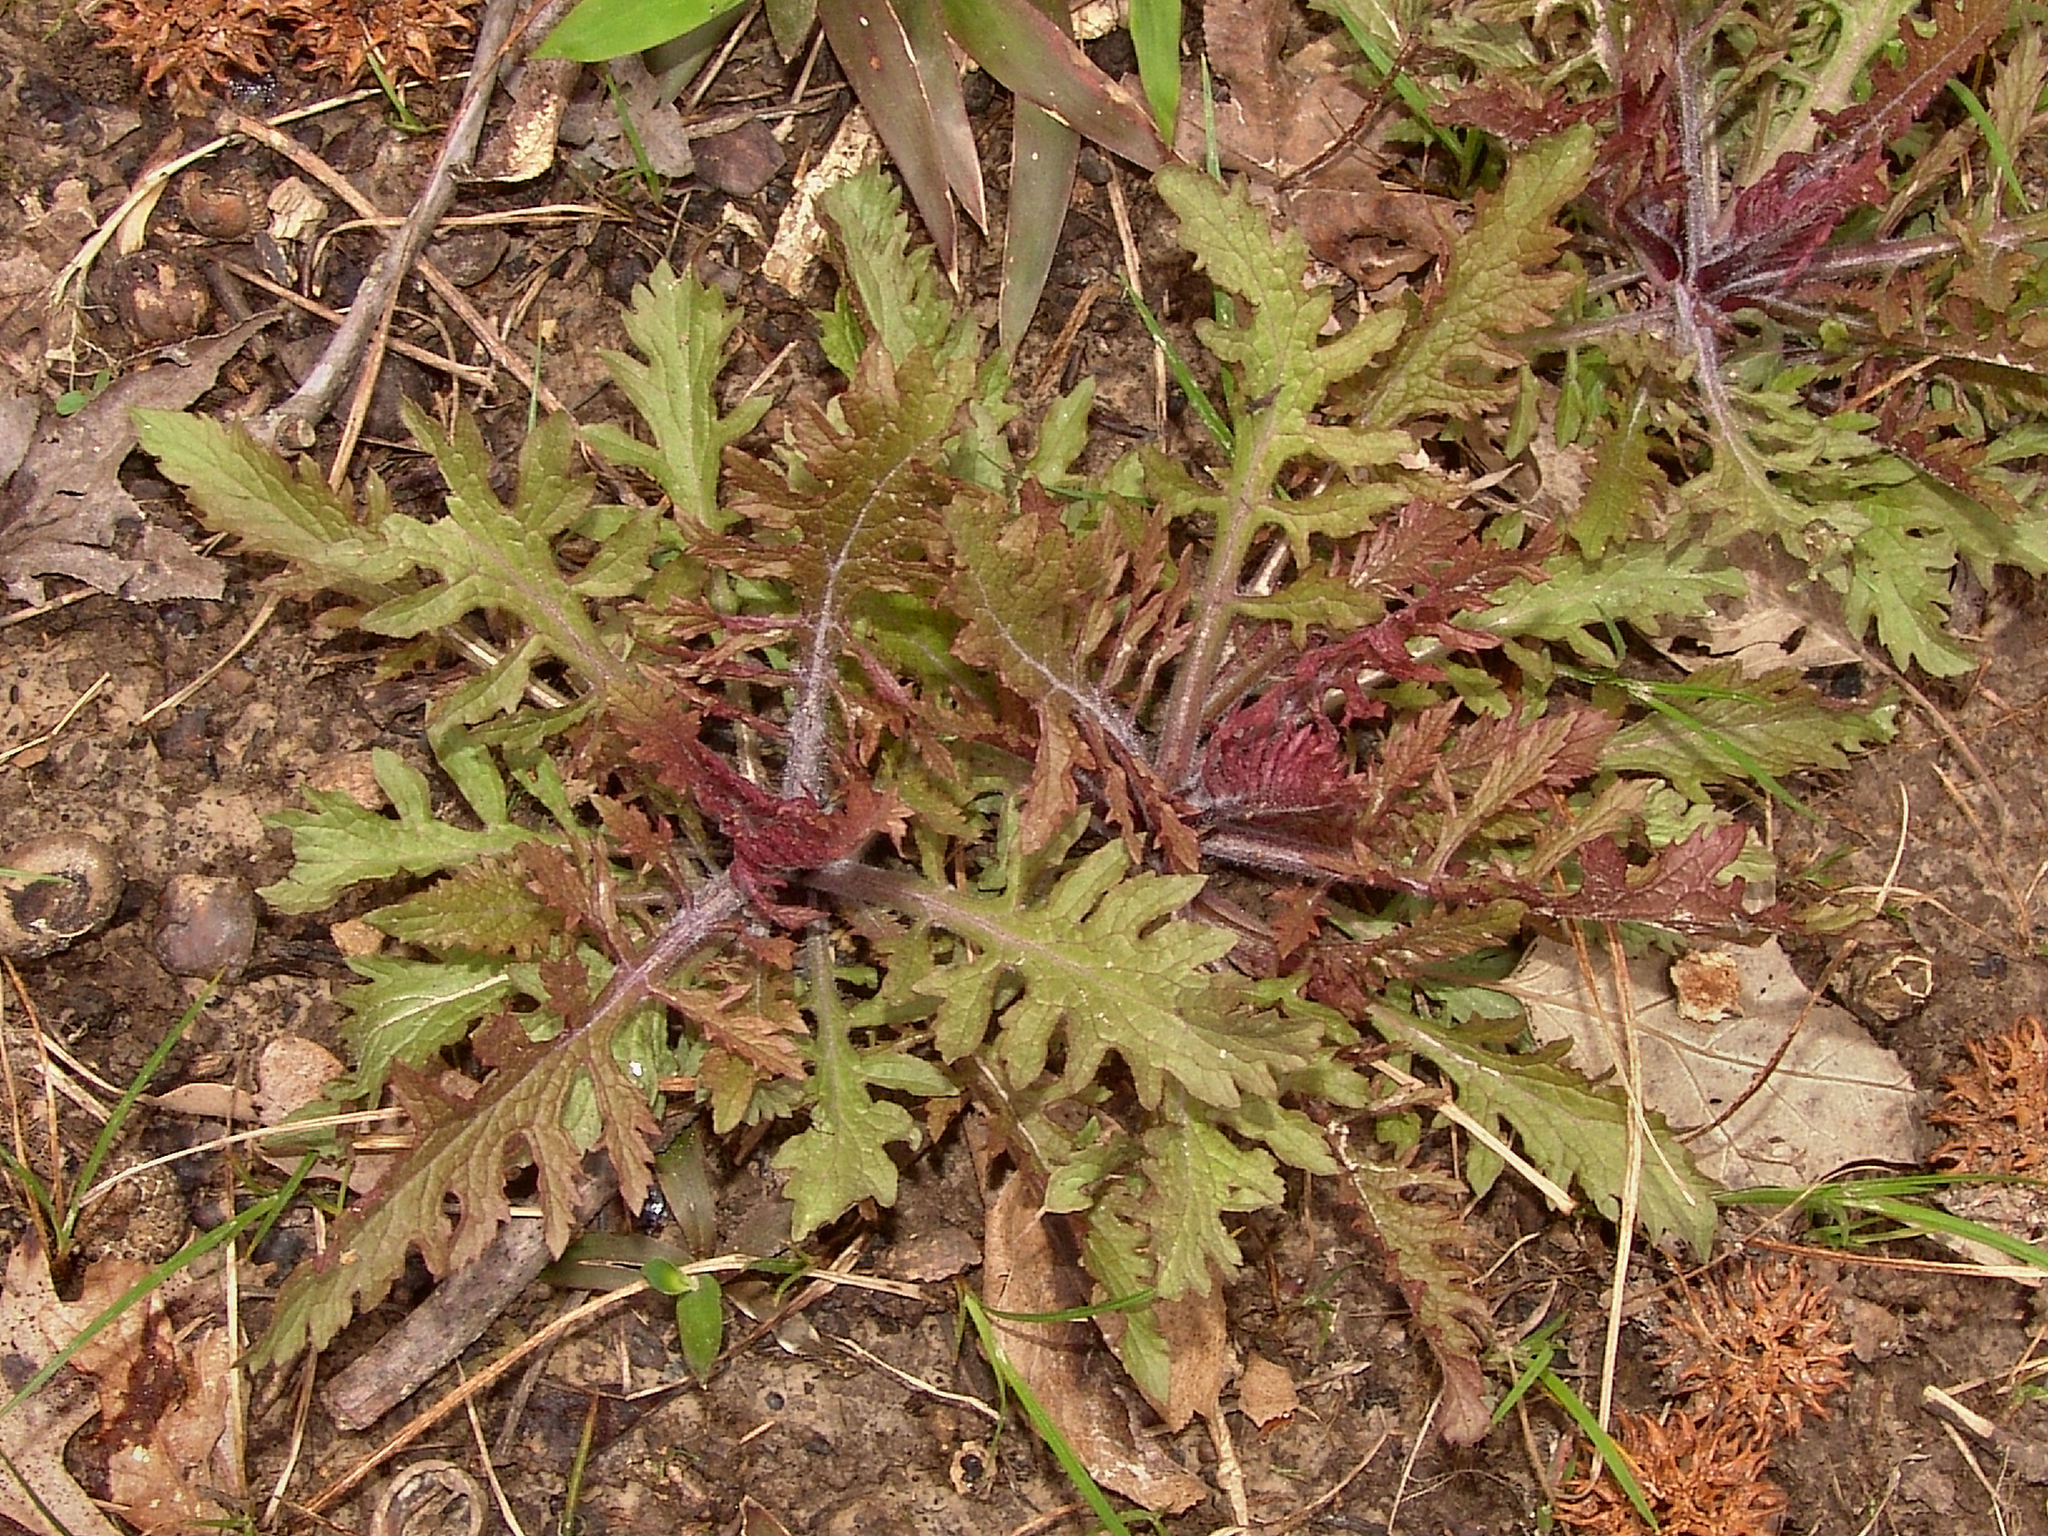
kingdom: Plantae
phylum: Tracheophyta
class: Magnoliopsida
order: Lamiales
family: Orobanchaceae
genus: Dasistoma
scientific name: Dasistoma macrophyllum
